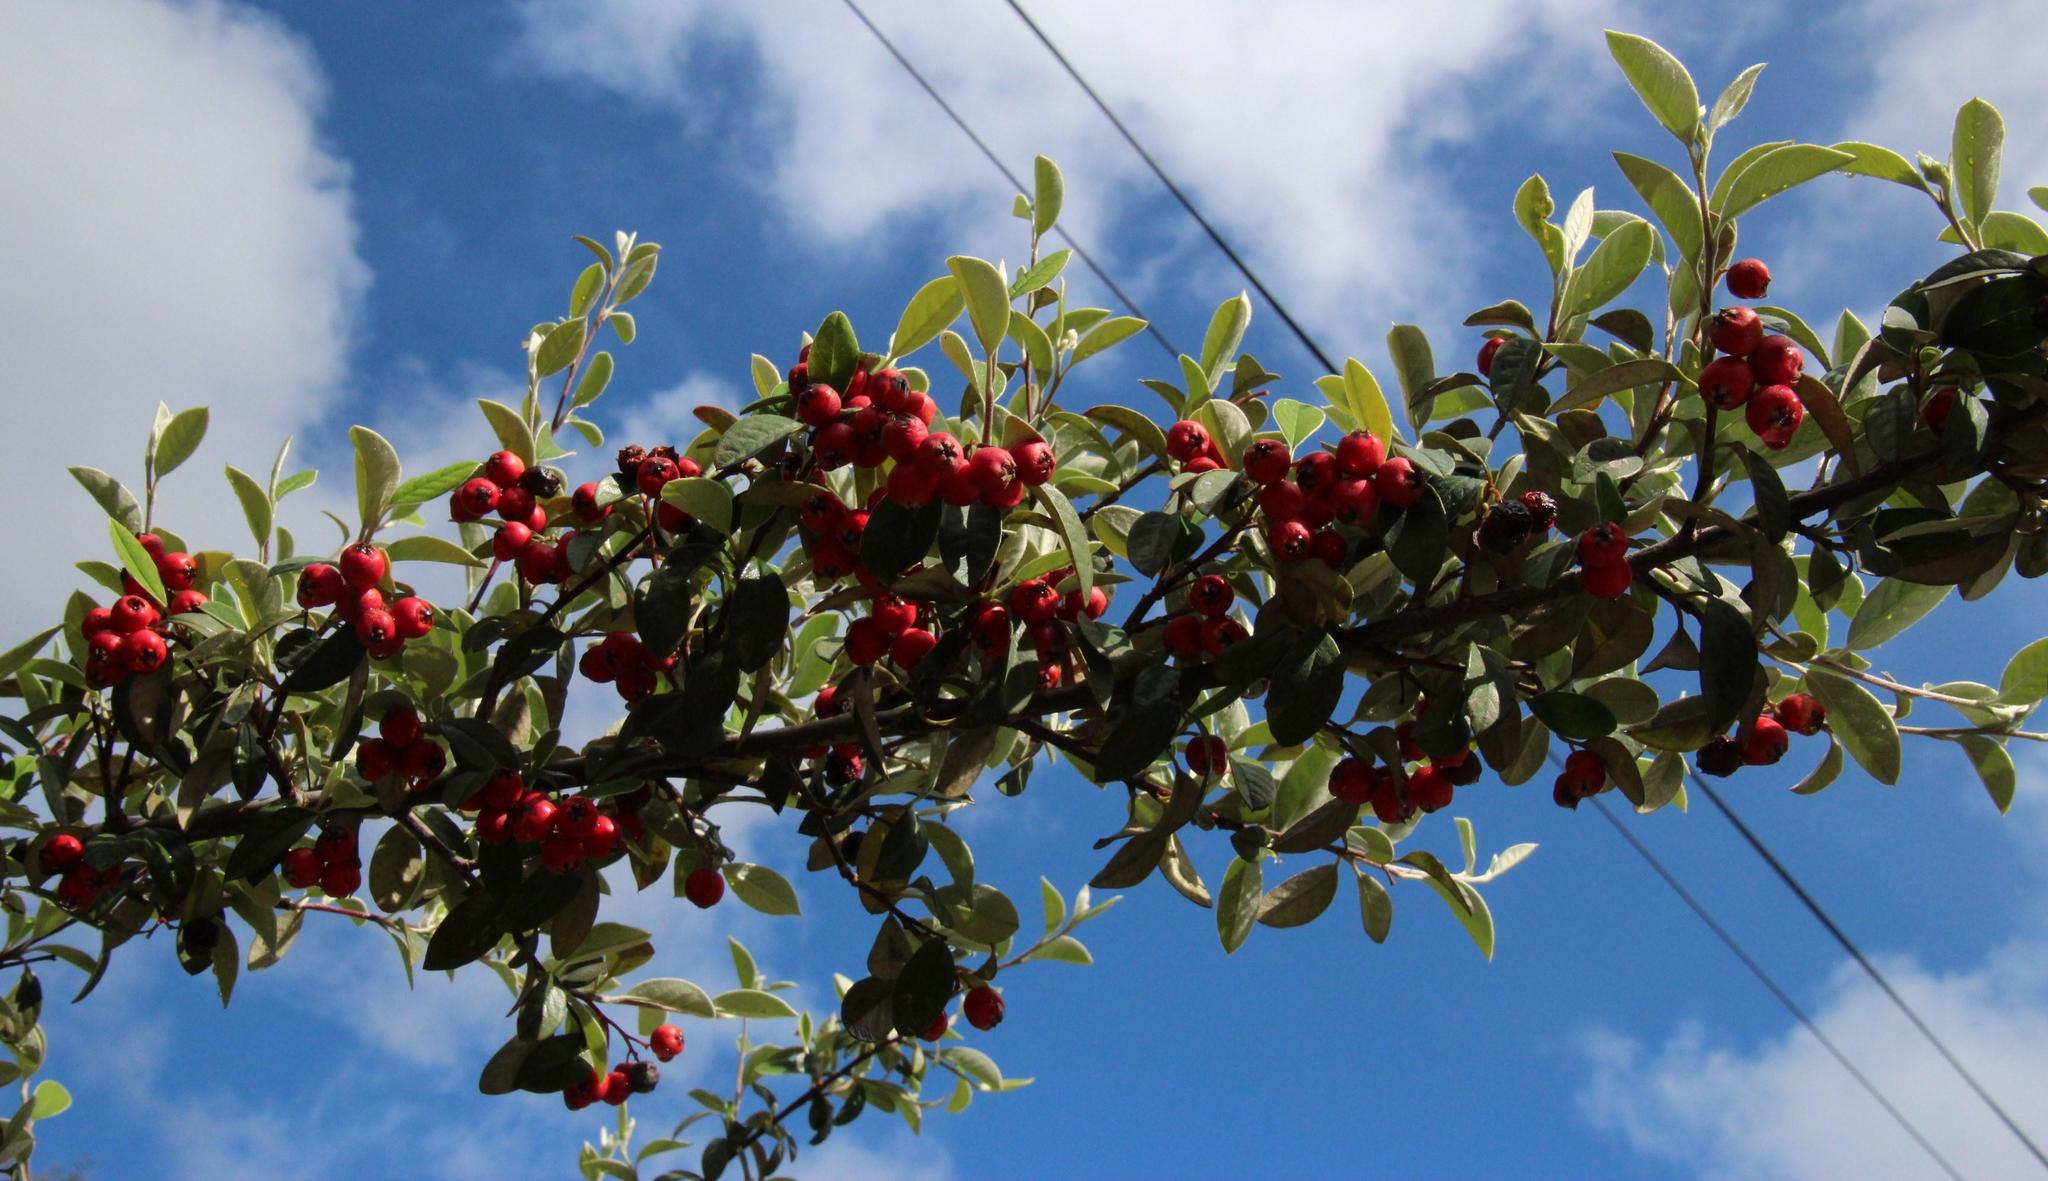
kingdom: Plantae
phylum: Tracheophyta
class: Magnoliopsida
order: Rosales
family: Rosaceae
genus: Cotoneaster
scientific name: Cotoneaster pannosus
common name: Silverleaf cotoneaster
